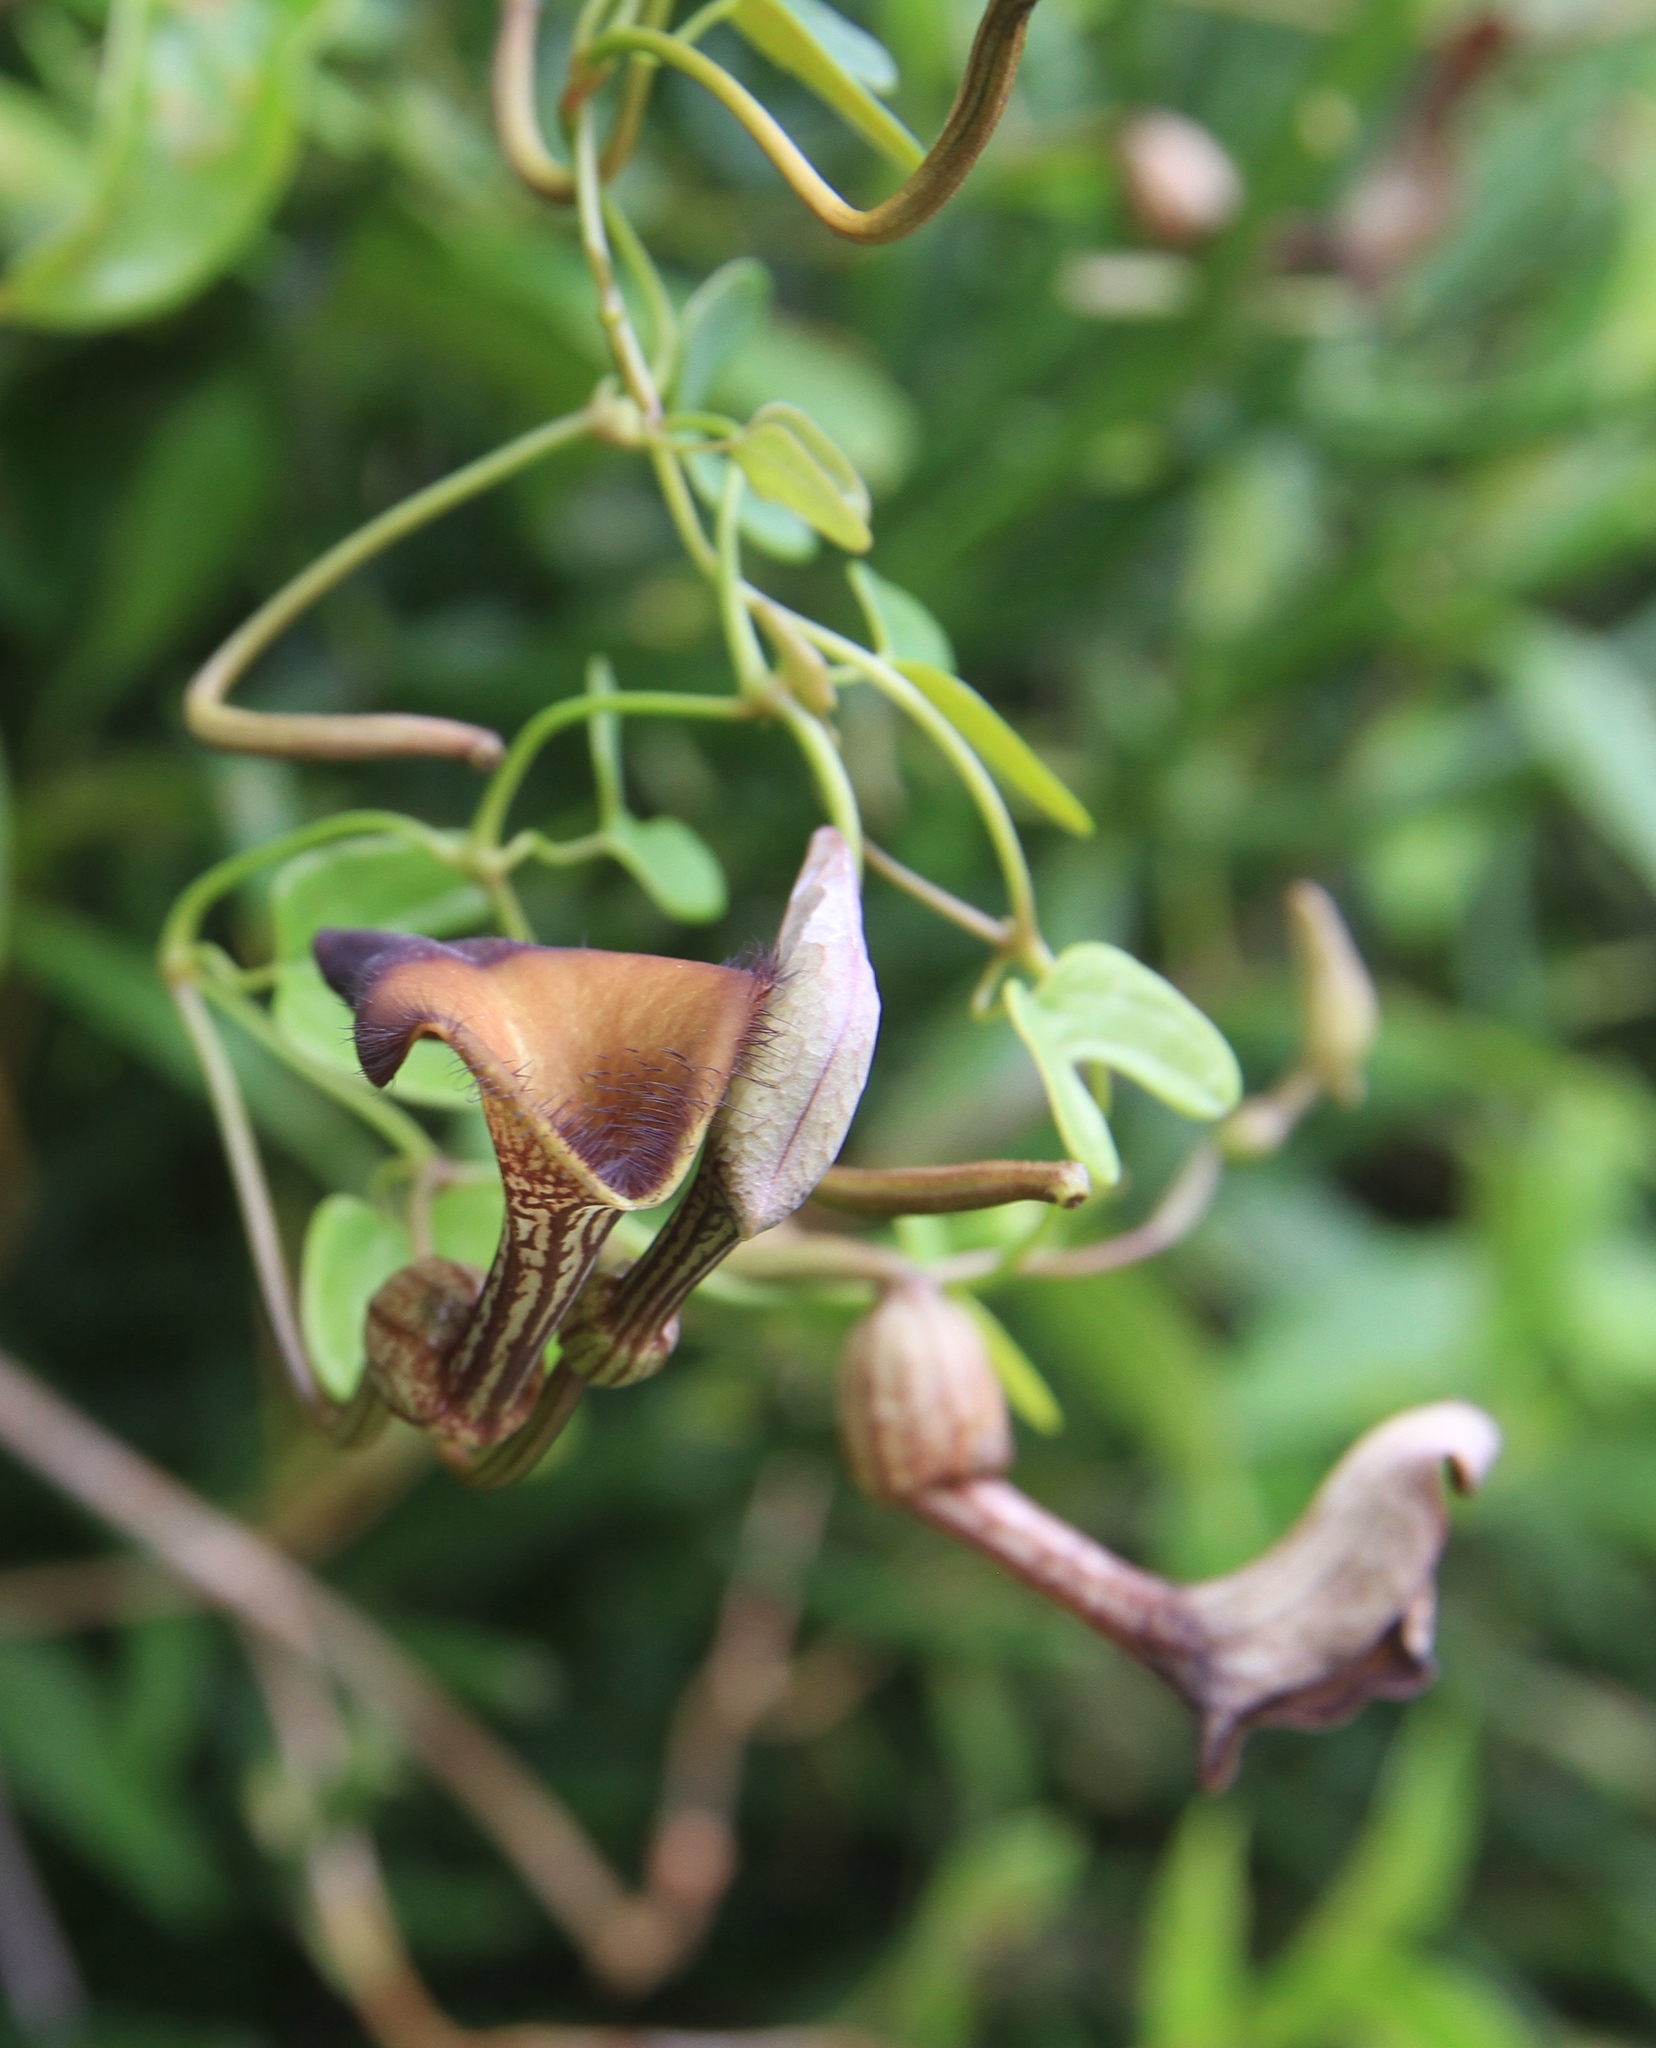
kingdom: Plantae
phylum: Tracheophyta
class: Magnoliopsida
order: Piperales
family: Aristolochiaceae
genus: Aristolochia
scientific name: Aristolochia bonettiana
